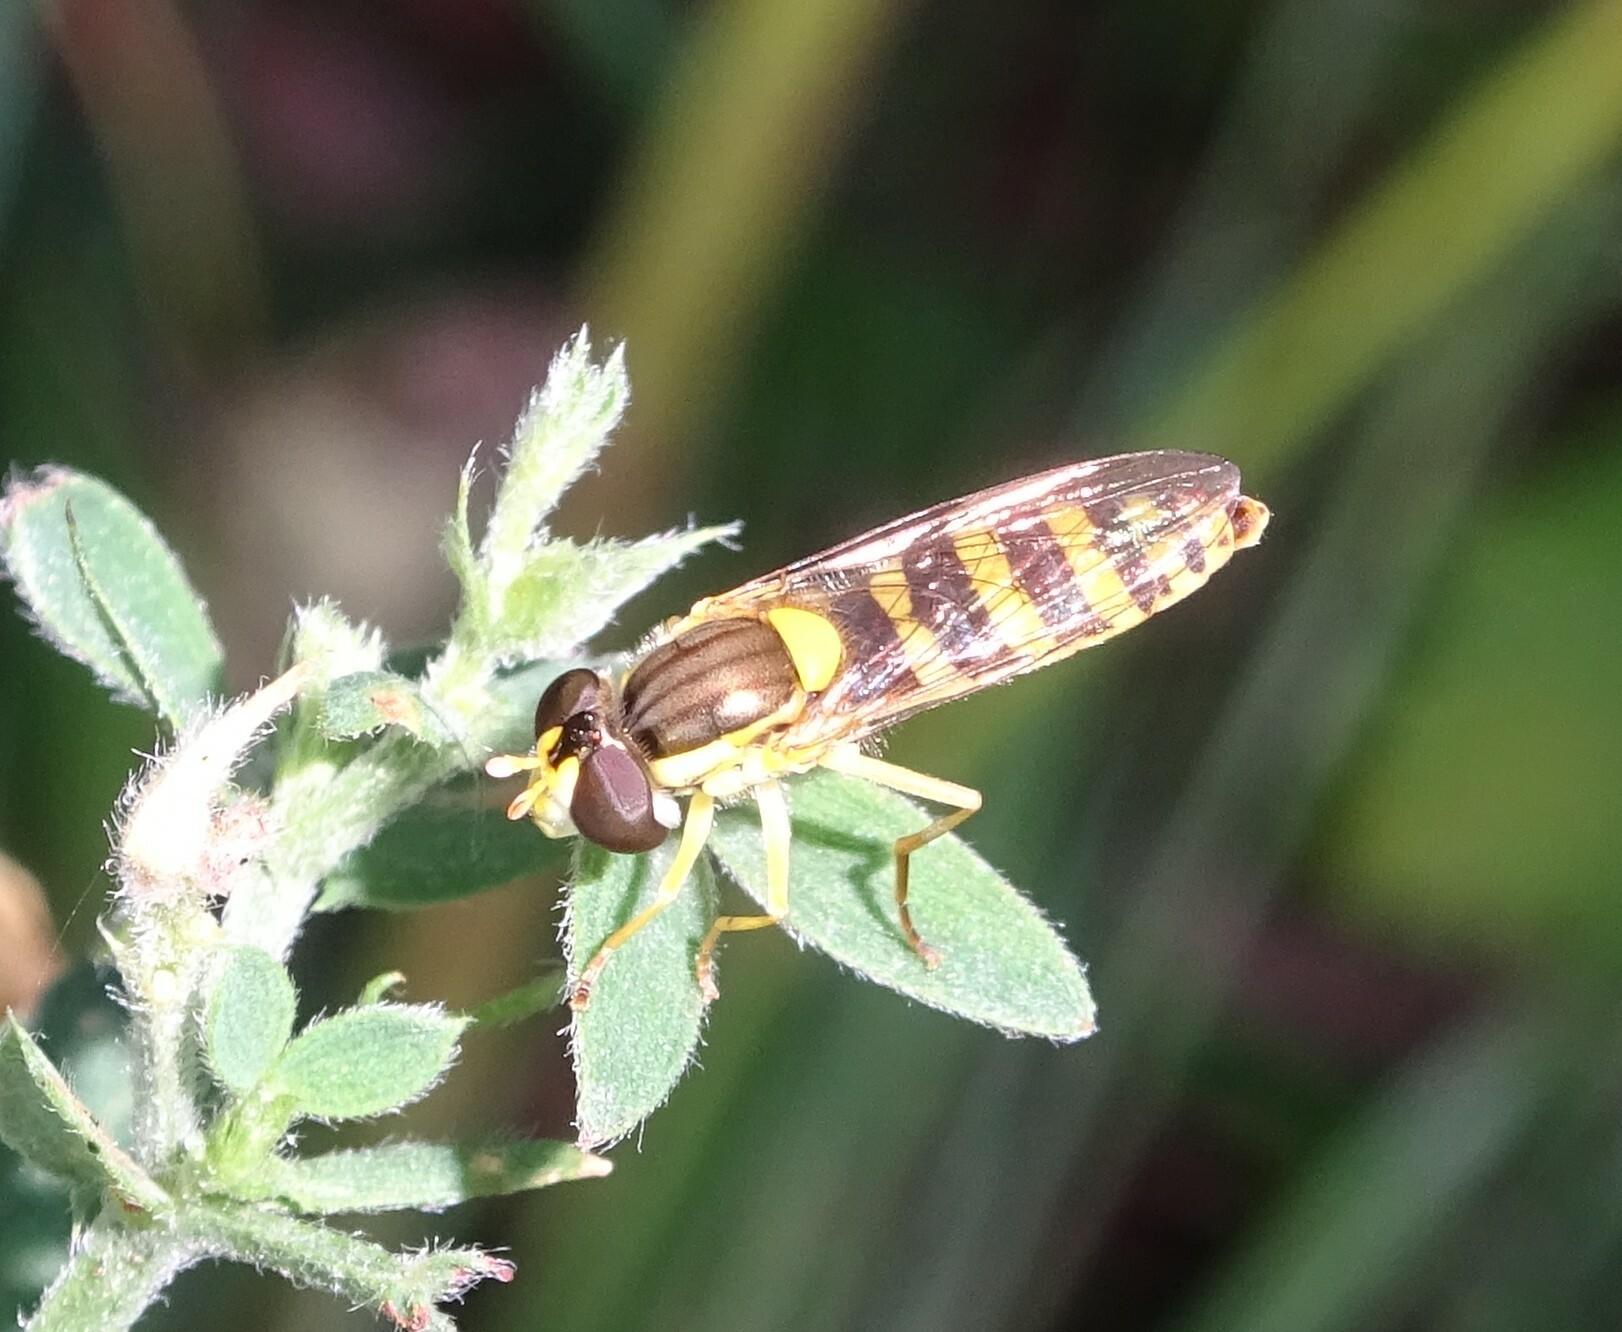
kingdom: Animalia
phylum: Arthropoda
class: Insecta
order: Diptera
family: Syrphidae
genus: Sphaerophoria
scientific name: Sphaerophoria
